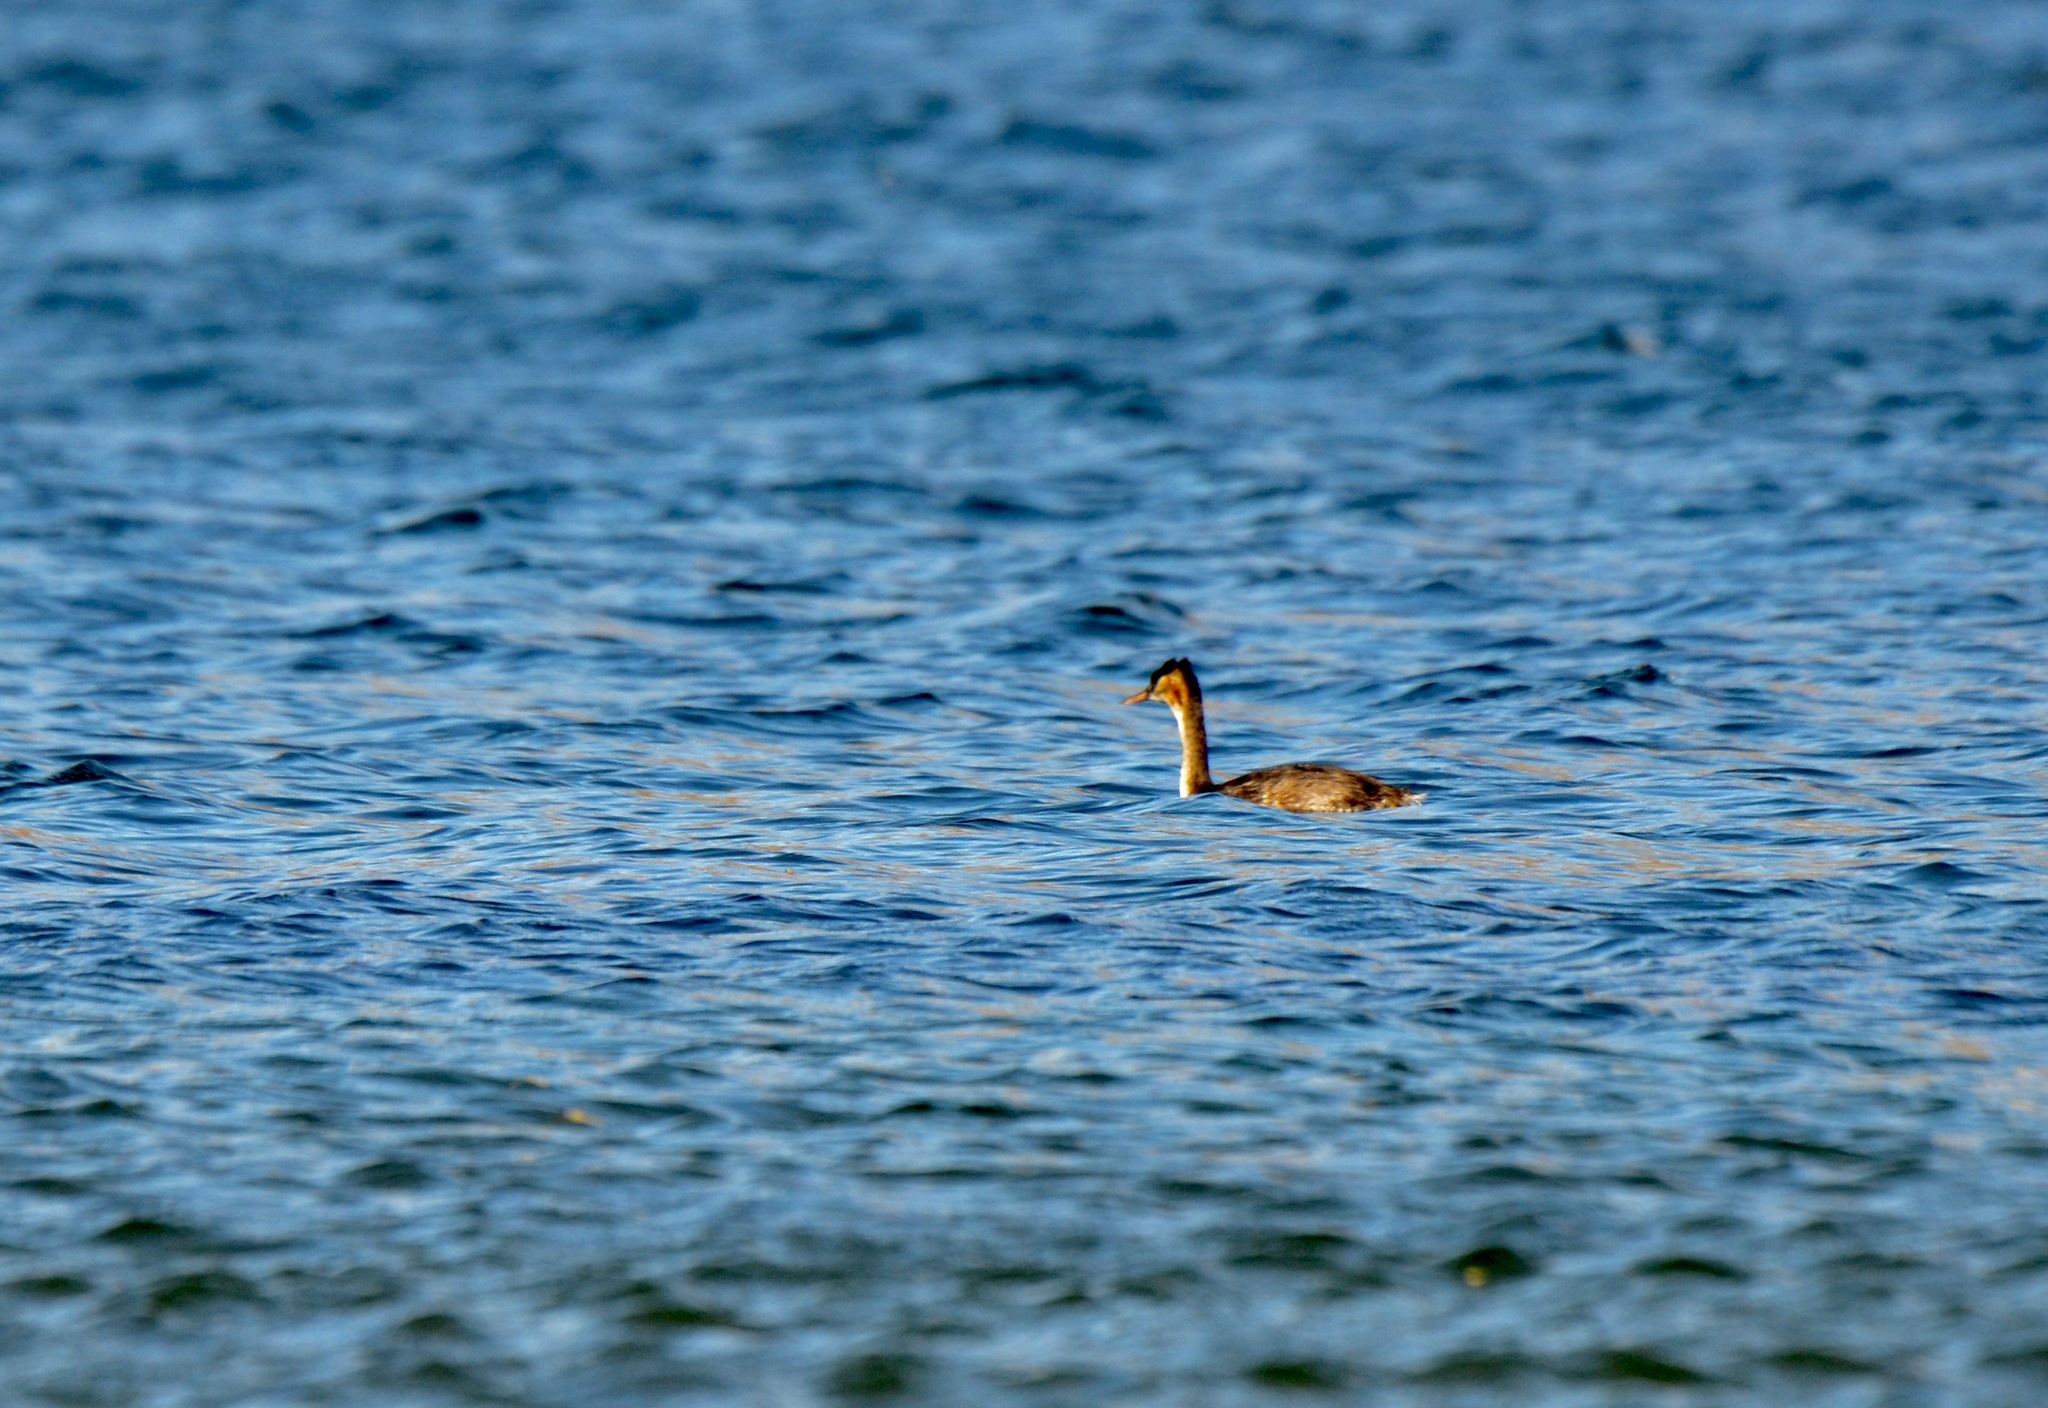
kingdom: Animalia
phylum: Chordata
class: Aves
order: Podicipediformes
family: Podicipedidae
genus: Podiceps
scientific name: Podiceps cristatus
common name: Great crested grebe
